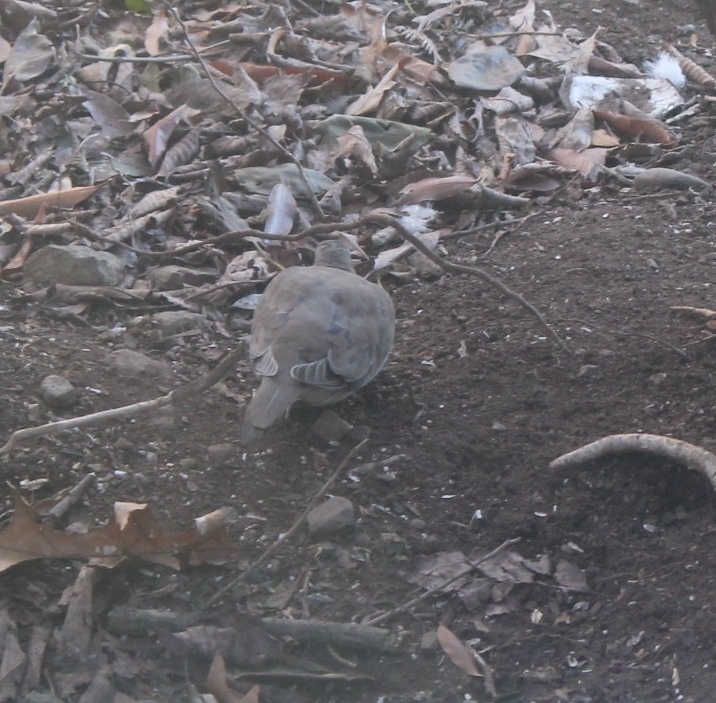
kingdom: Animalia
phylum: Chordata
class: Aves
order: Columbiformes
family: Columbidae
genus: Zenaida
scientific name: Zenaida macroura
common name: Mourning dove
